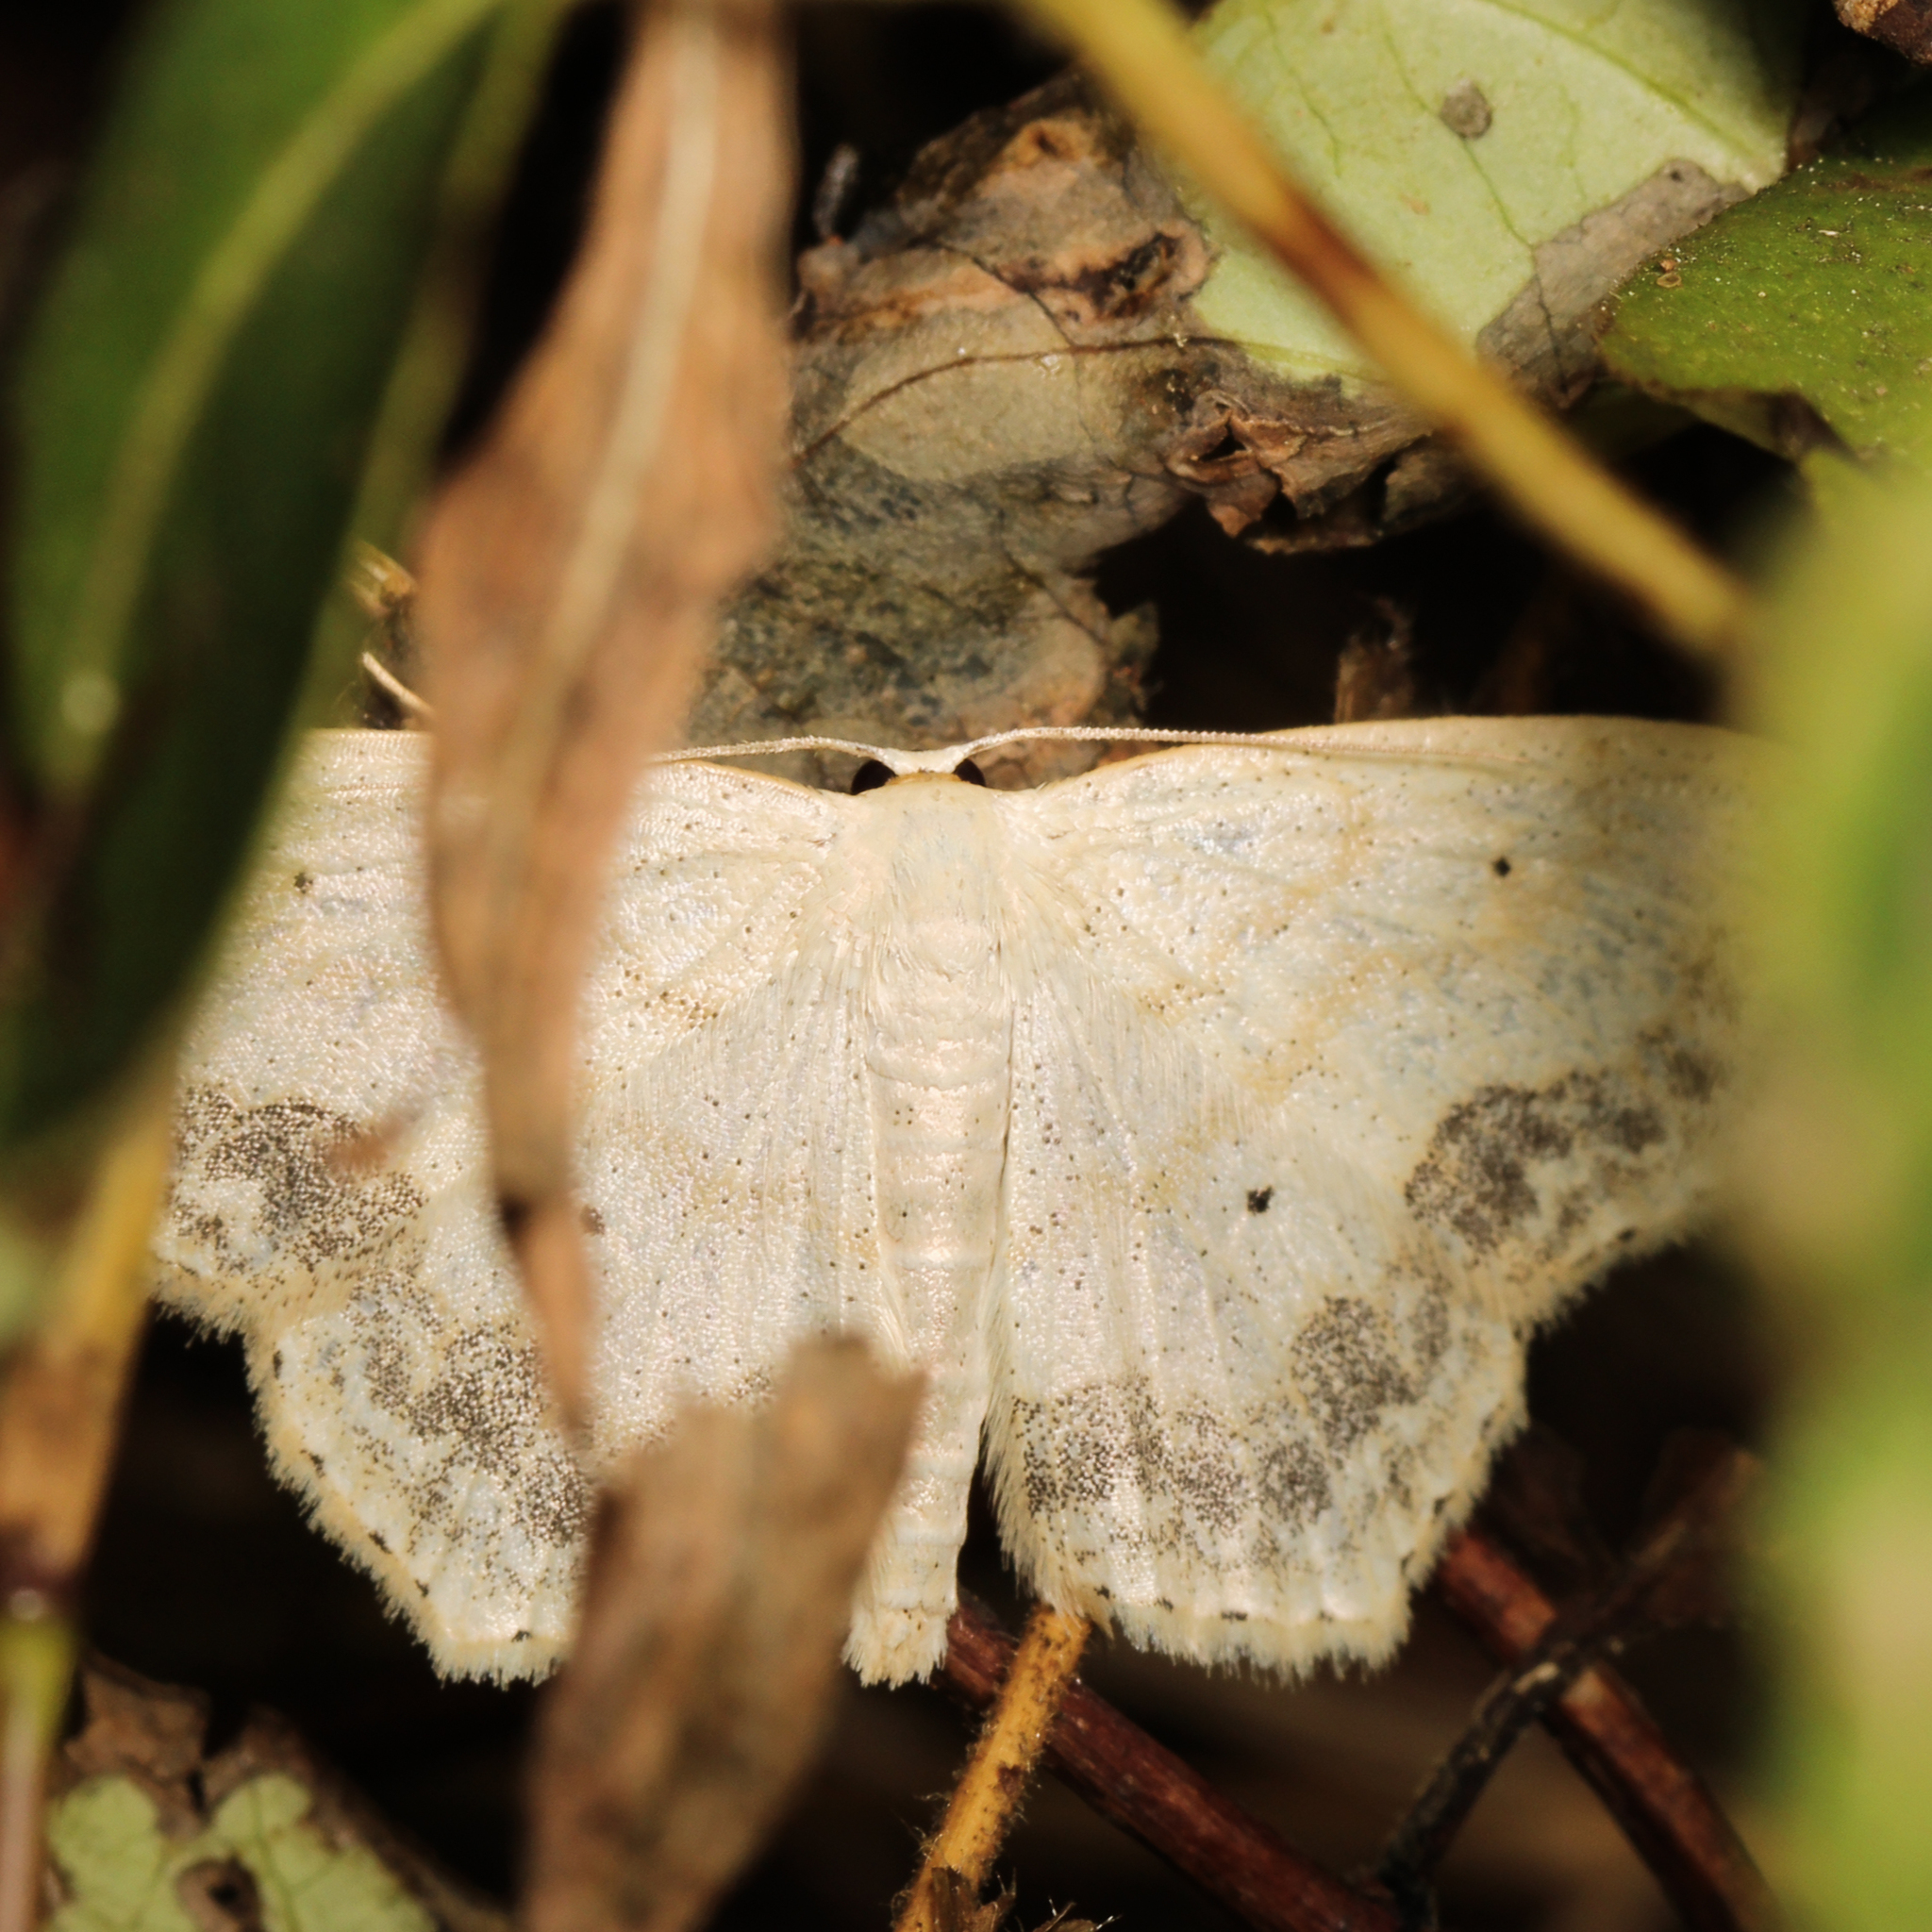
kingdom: Animalia
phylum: Arthropoda
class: Insecta
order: Lepidoptera
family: Geometridae
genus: Scopula
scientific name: Scopula limboundata
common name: Large lace border
